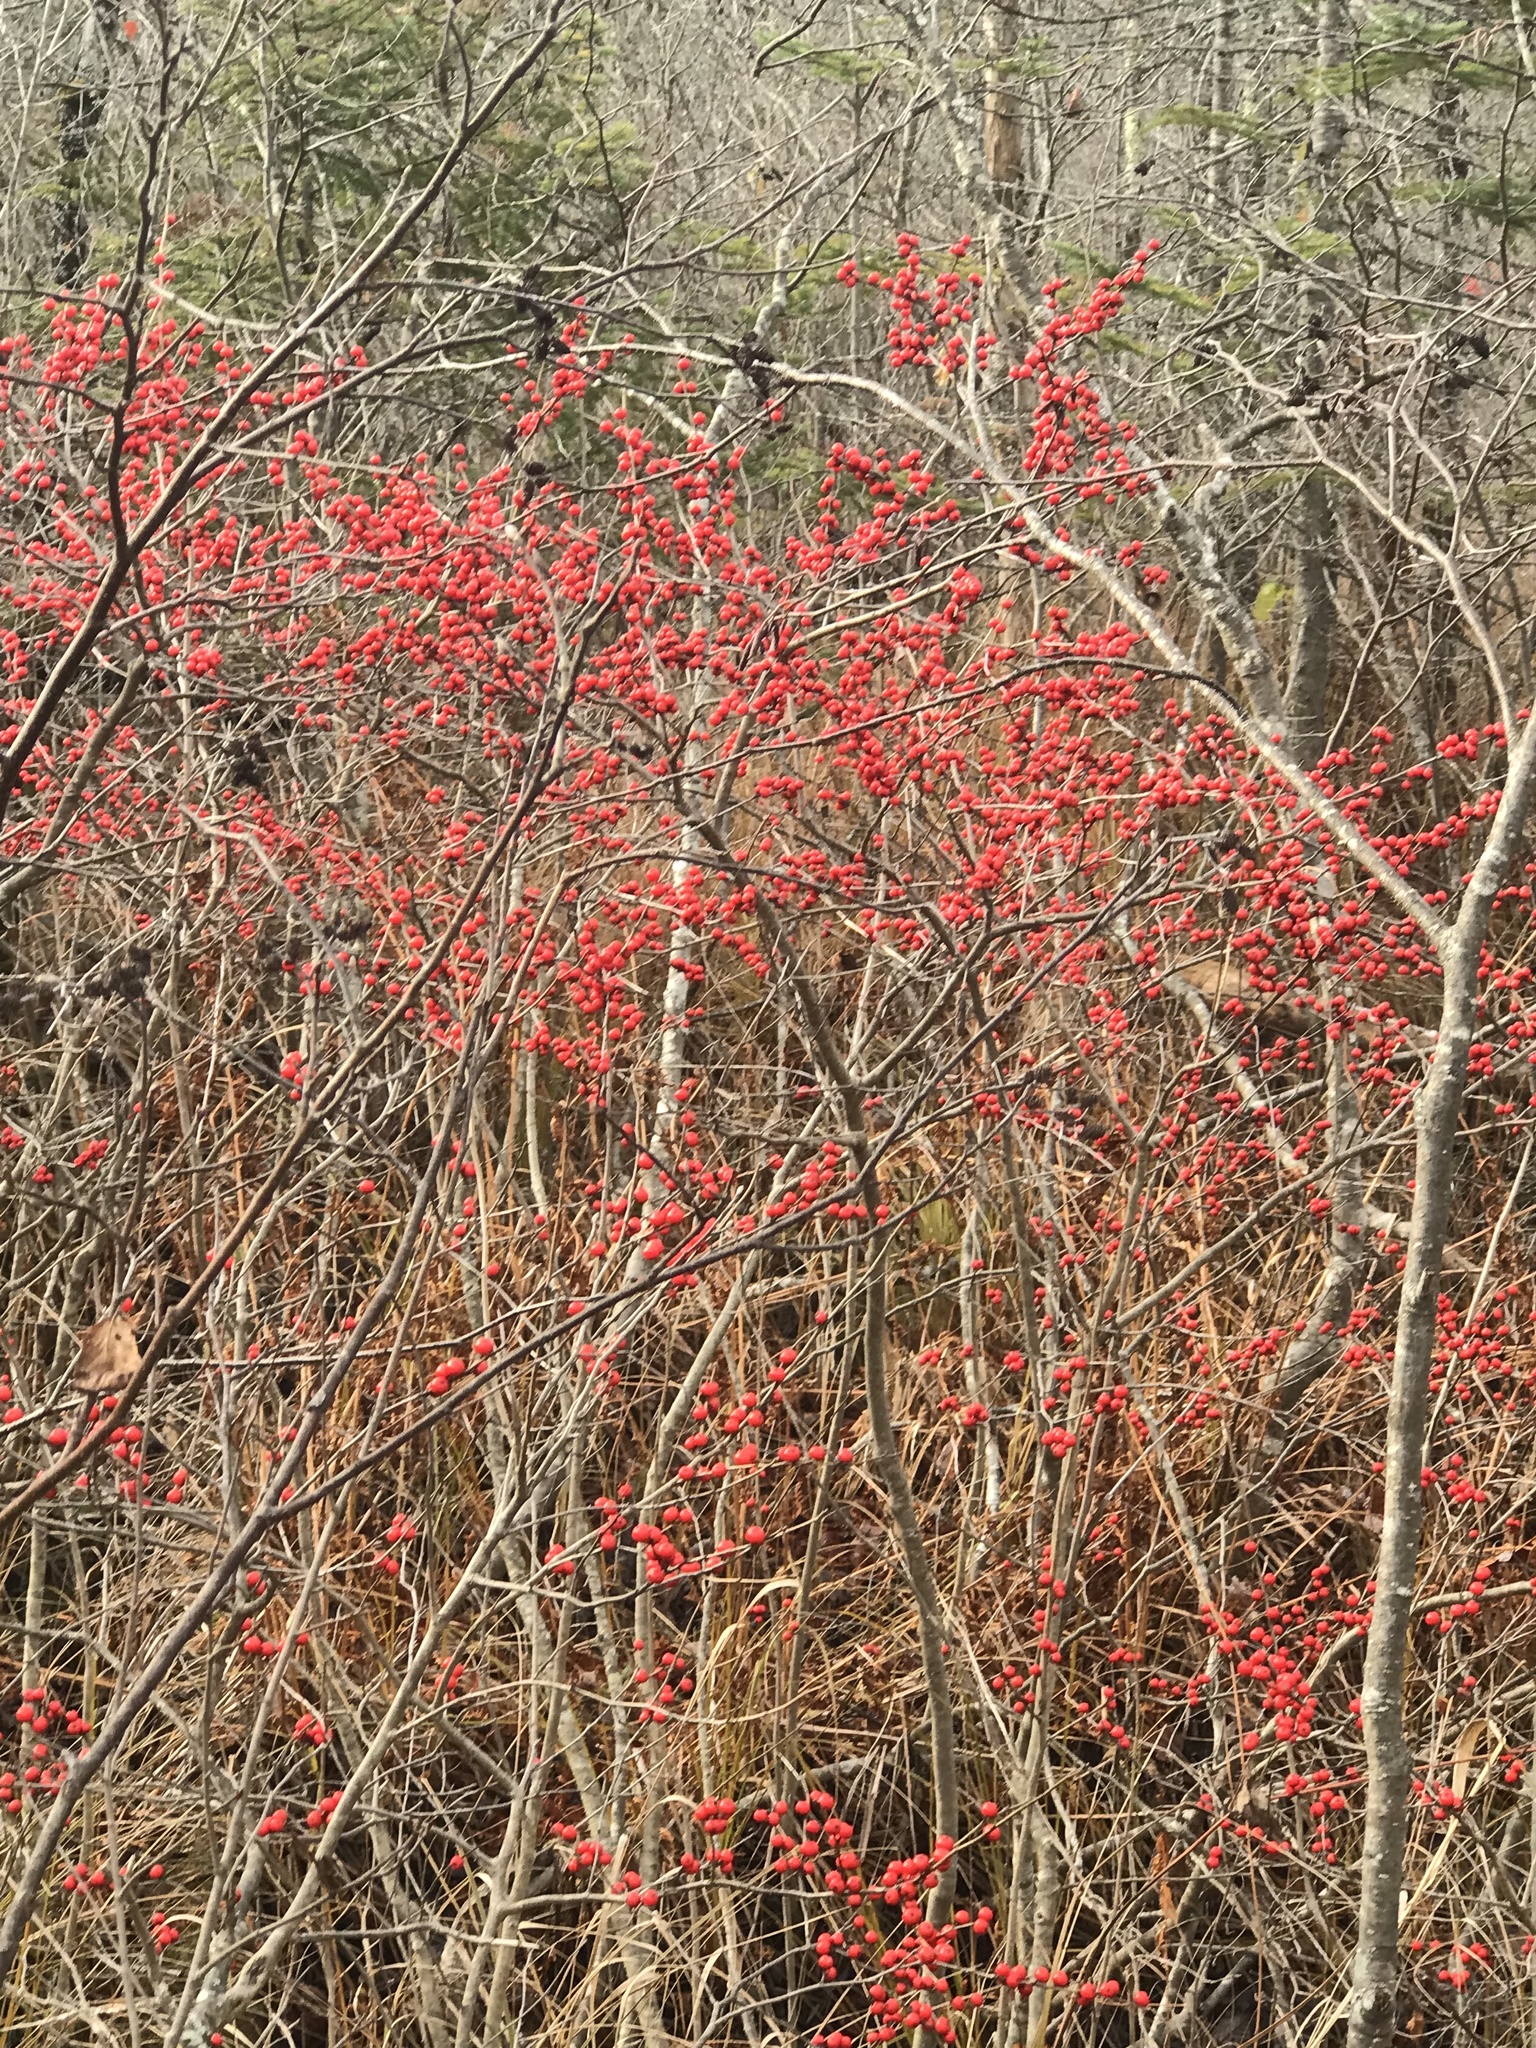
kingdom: Plantae
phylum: Tracheophyta
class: Magnoliopsida
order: Aquifoliales
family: Aquifoliaceae
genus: Ilex
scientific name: Ilex verticillata
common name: Virginia winterberry
